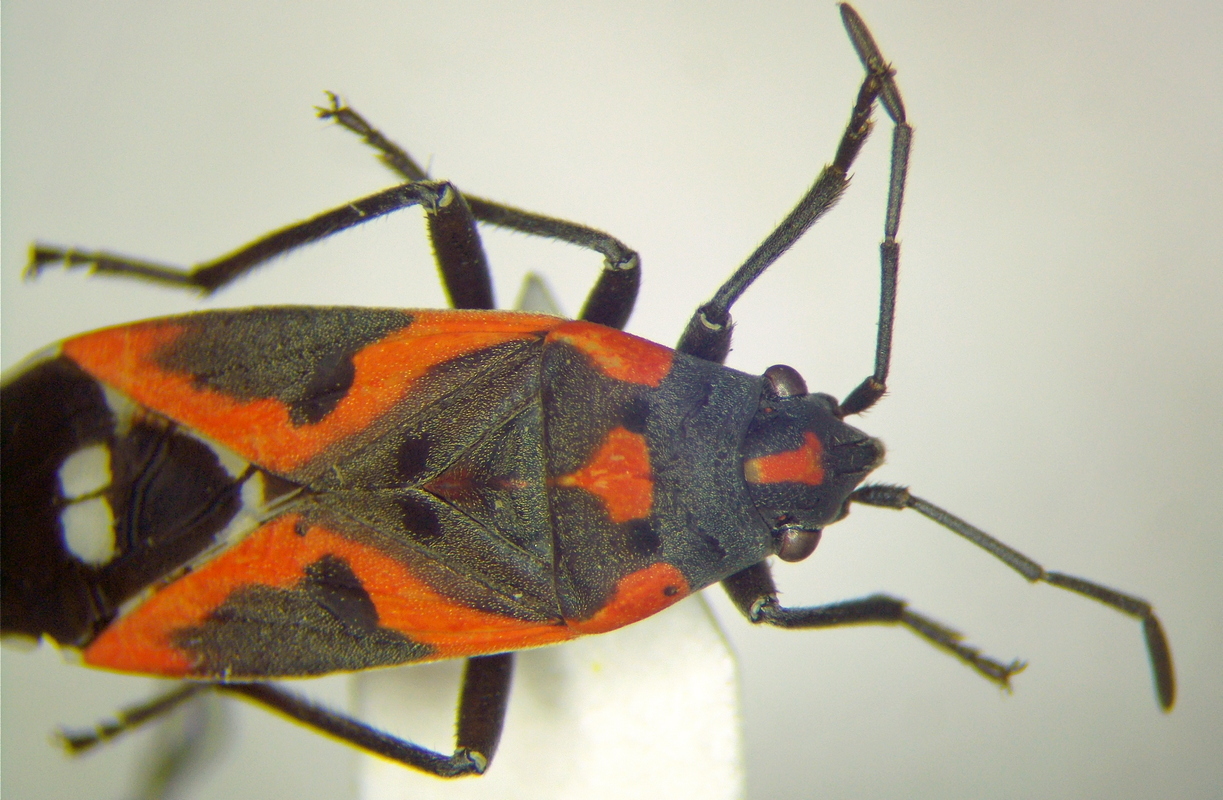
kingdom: Animalia
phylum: Arthropoda
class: Insecta
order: Hemiptera
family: Lygaeidae
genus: Lygaeus
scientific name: Lygaeus kalmii
